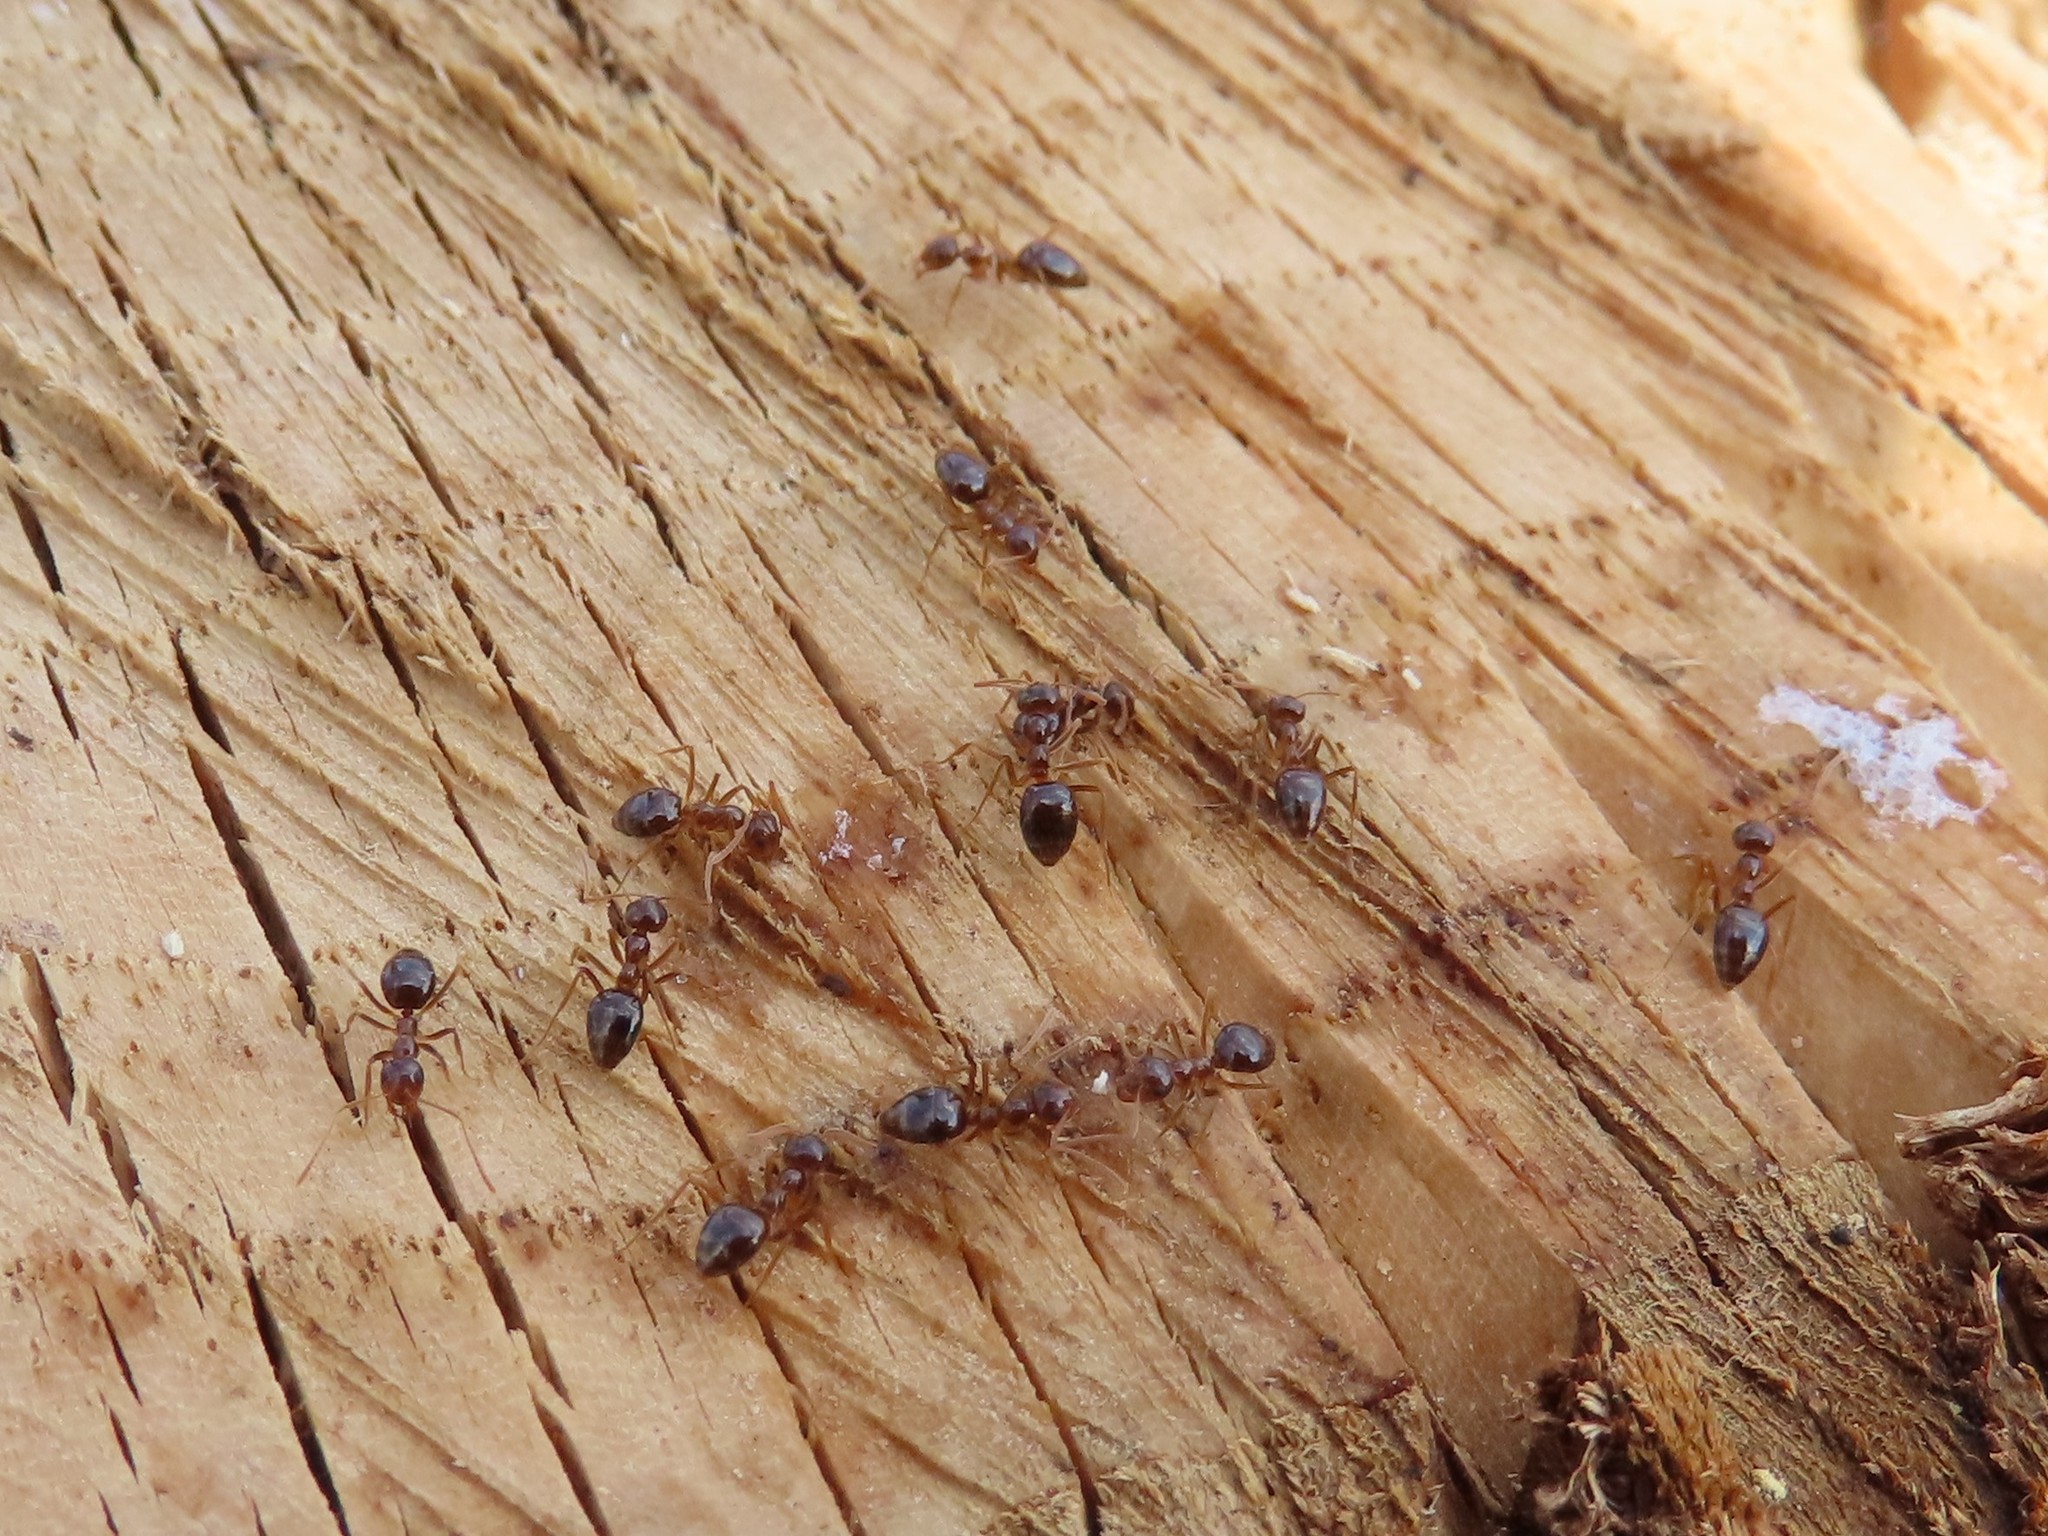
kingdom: Animalia
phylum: Arthropoda
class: Insecta
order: Hymenoptera
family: Formicidae
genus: Prenolepis
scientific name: Prenolepis imparis
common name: Small honey ant
